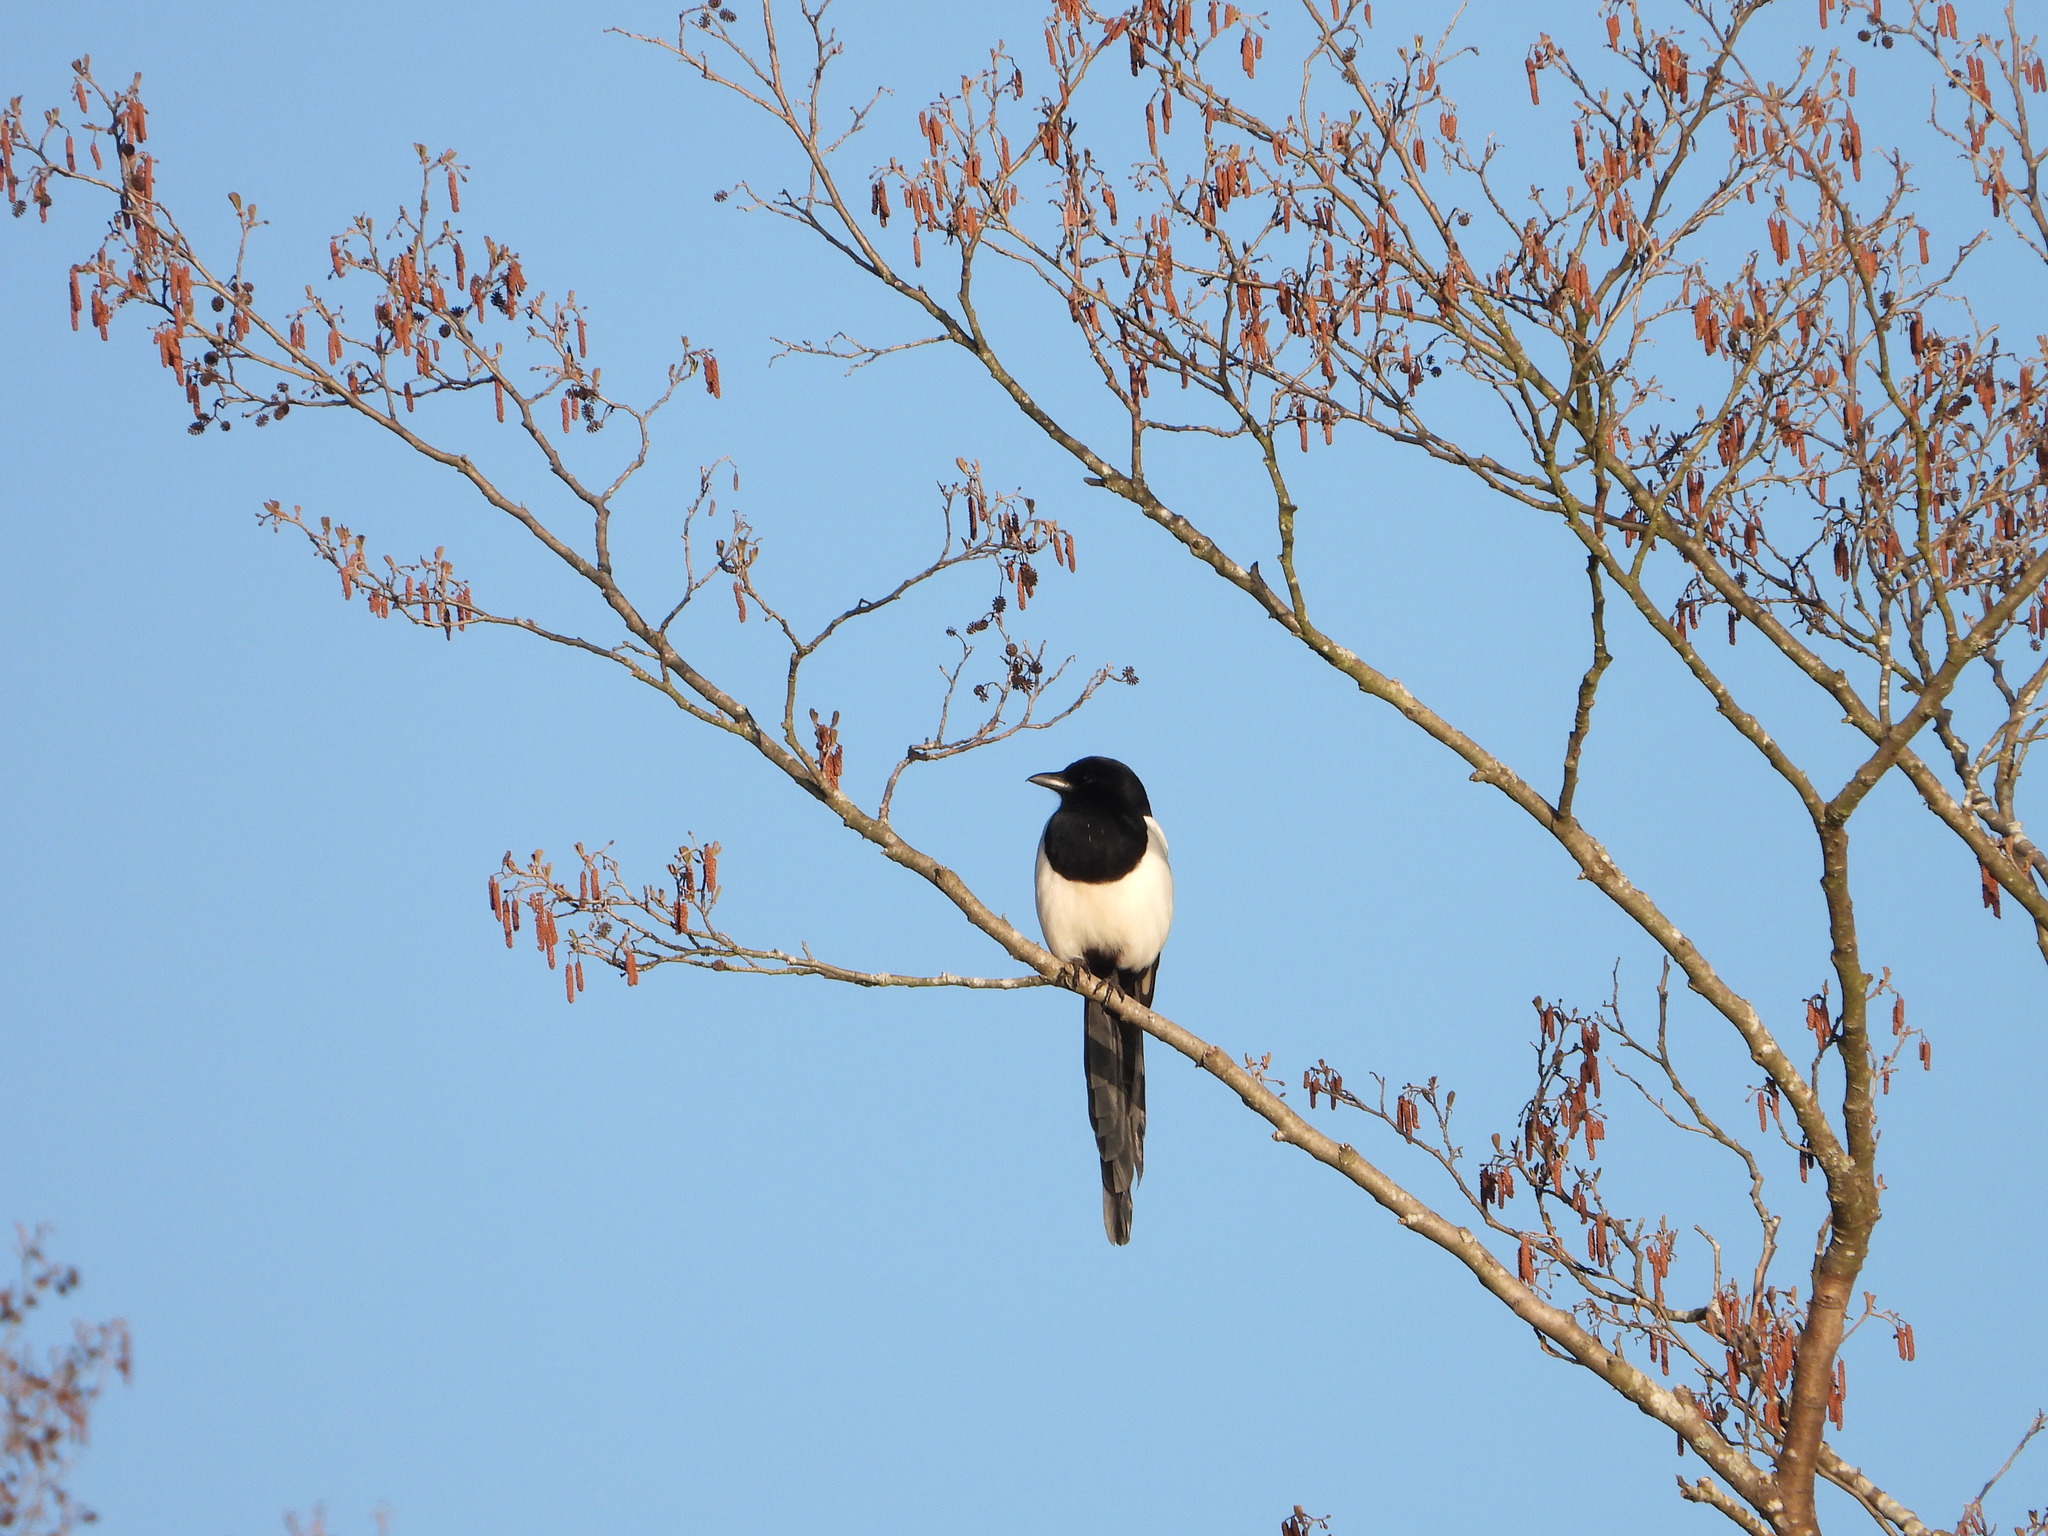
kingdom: Animalia
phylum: Chordata
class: Aves
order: Passeriformes
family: Corvidae
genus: Pica
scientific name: Pica pica
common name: Eurasian magpie
